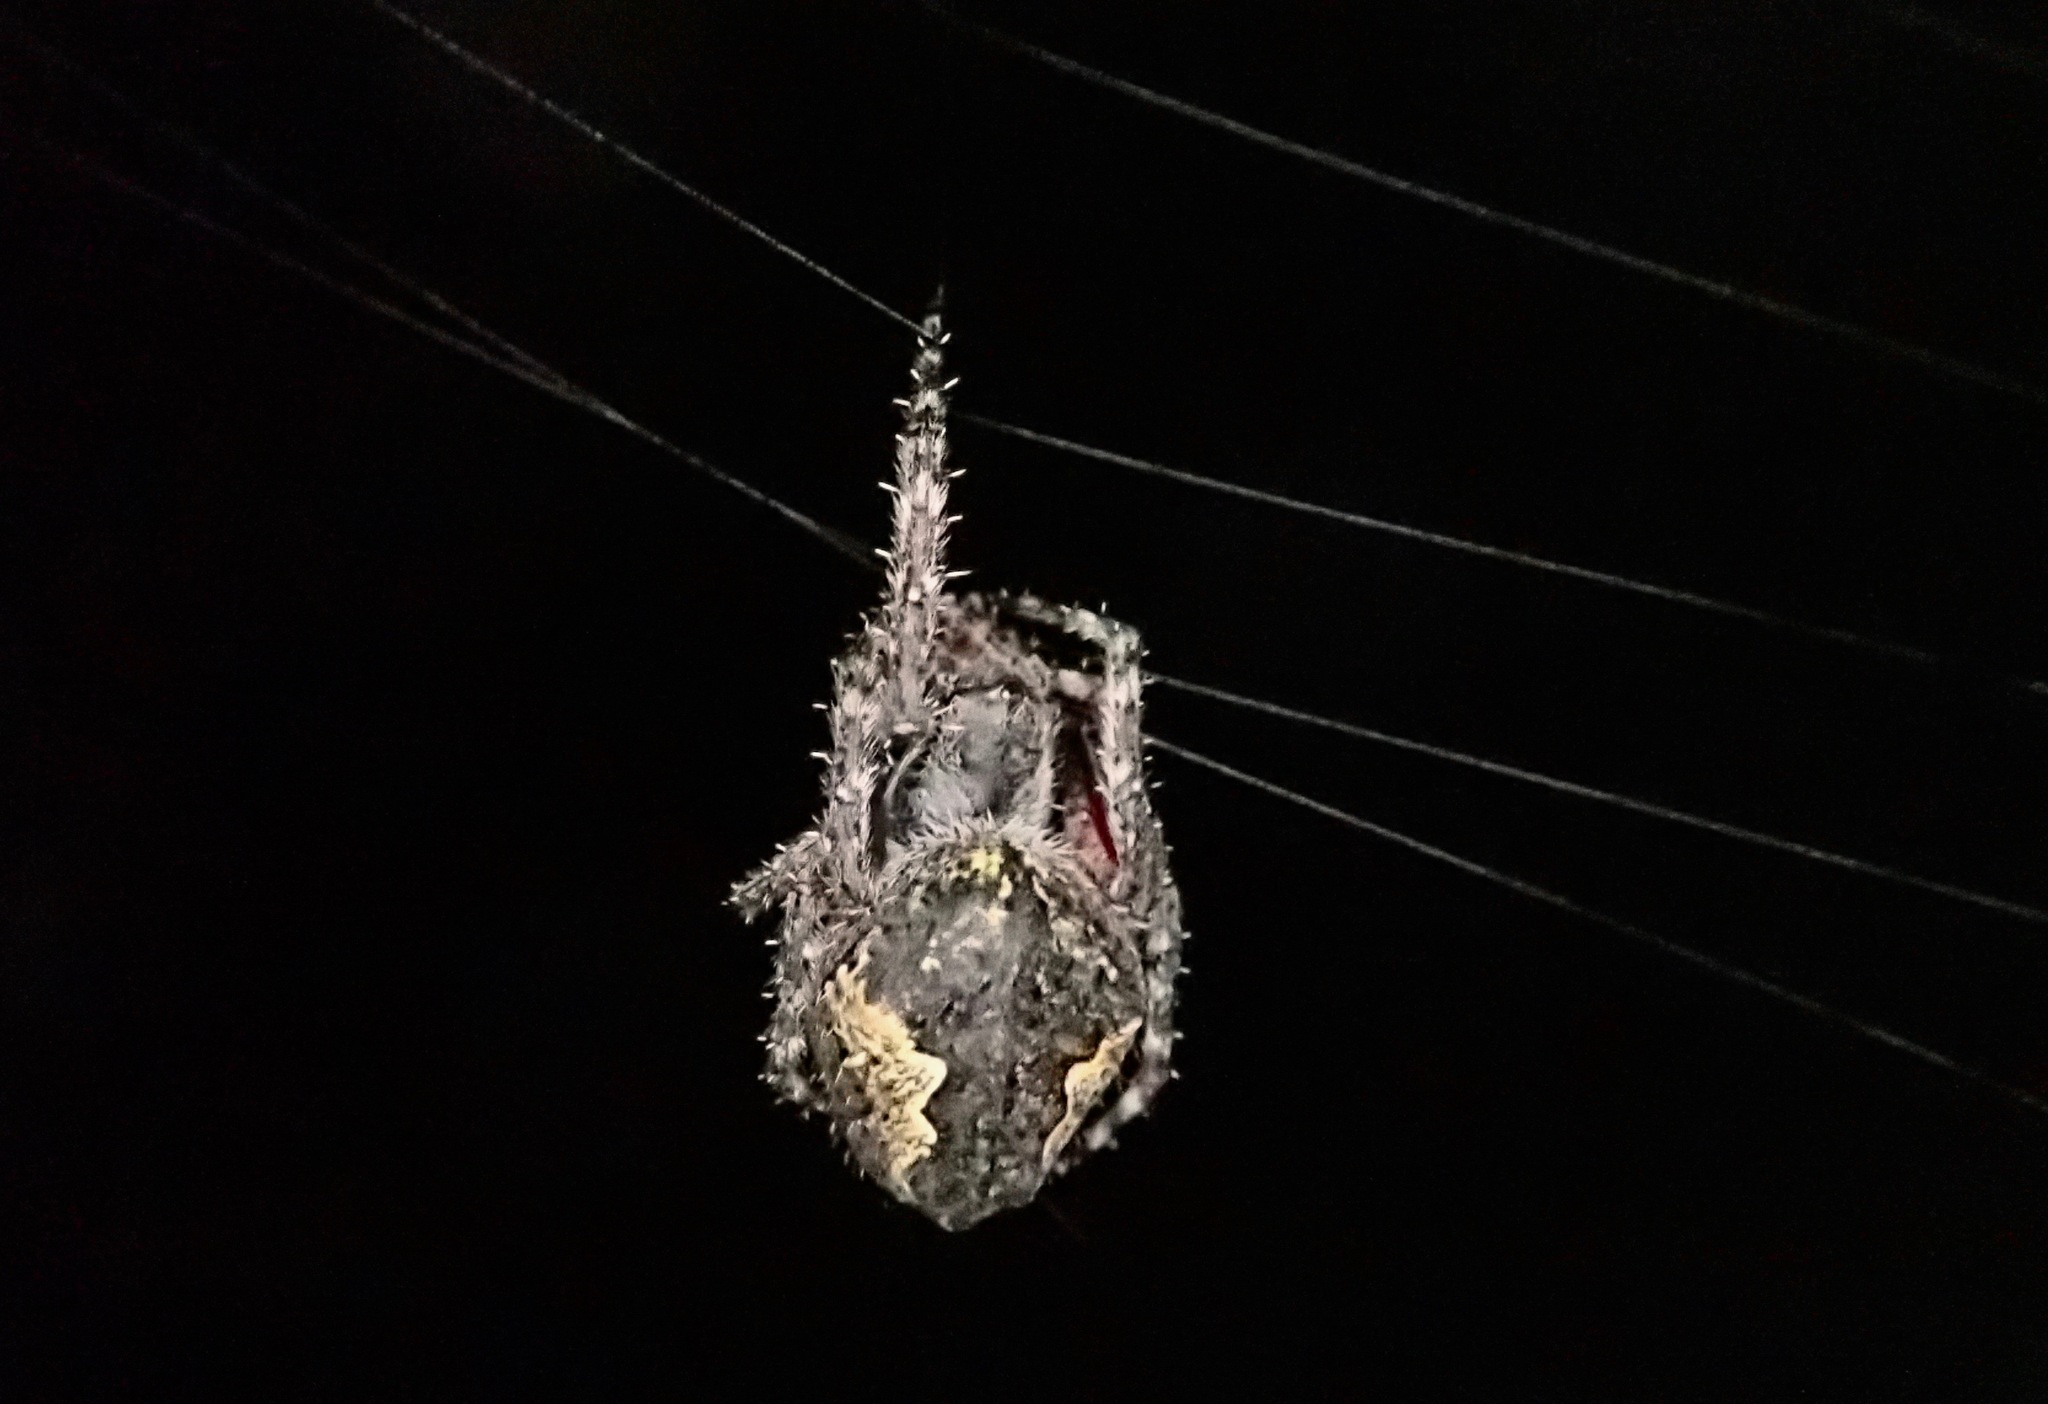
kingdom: Animalia
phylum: Arthropoda
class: Arachnida
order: Araneae
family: Araneidae
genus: Eriophora
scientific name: Eriophora pustulosa
